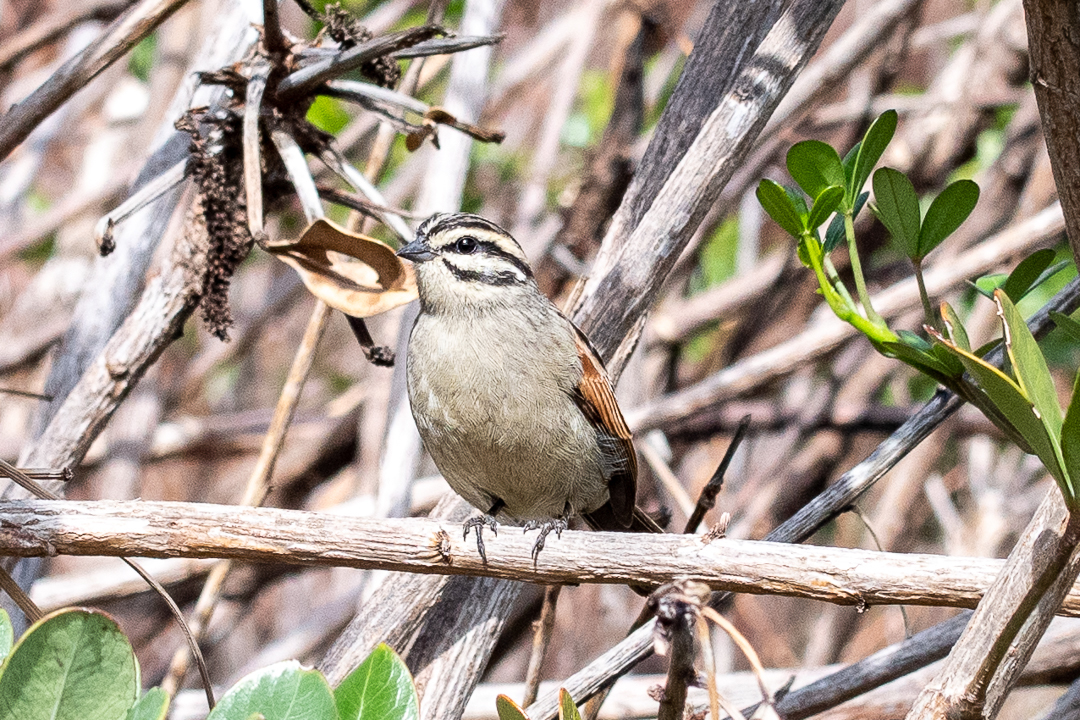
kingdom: Animalia
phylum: Chordata
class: Aves
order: Passeriformes
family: Emberizidae
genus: Emberiza
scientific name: Emberiza capensis
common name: Cape bunting
